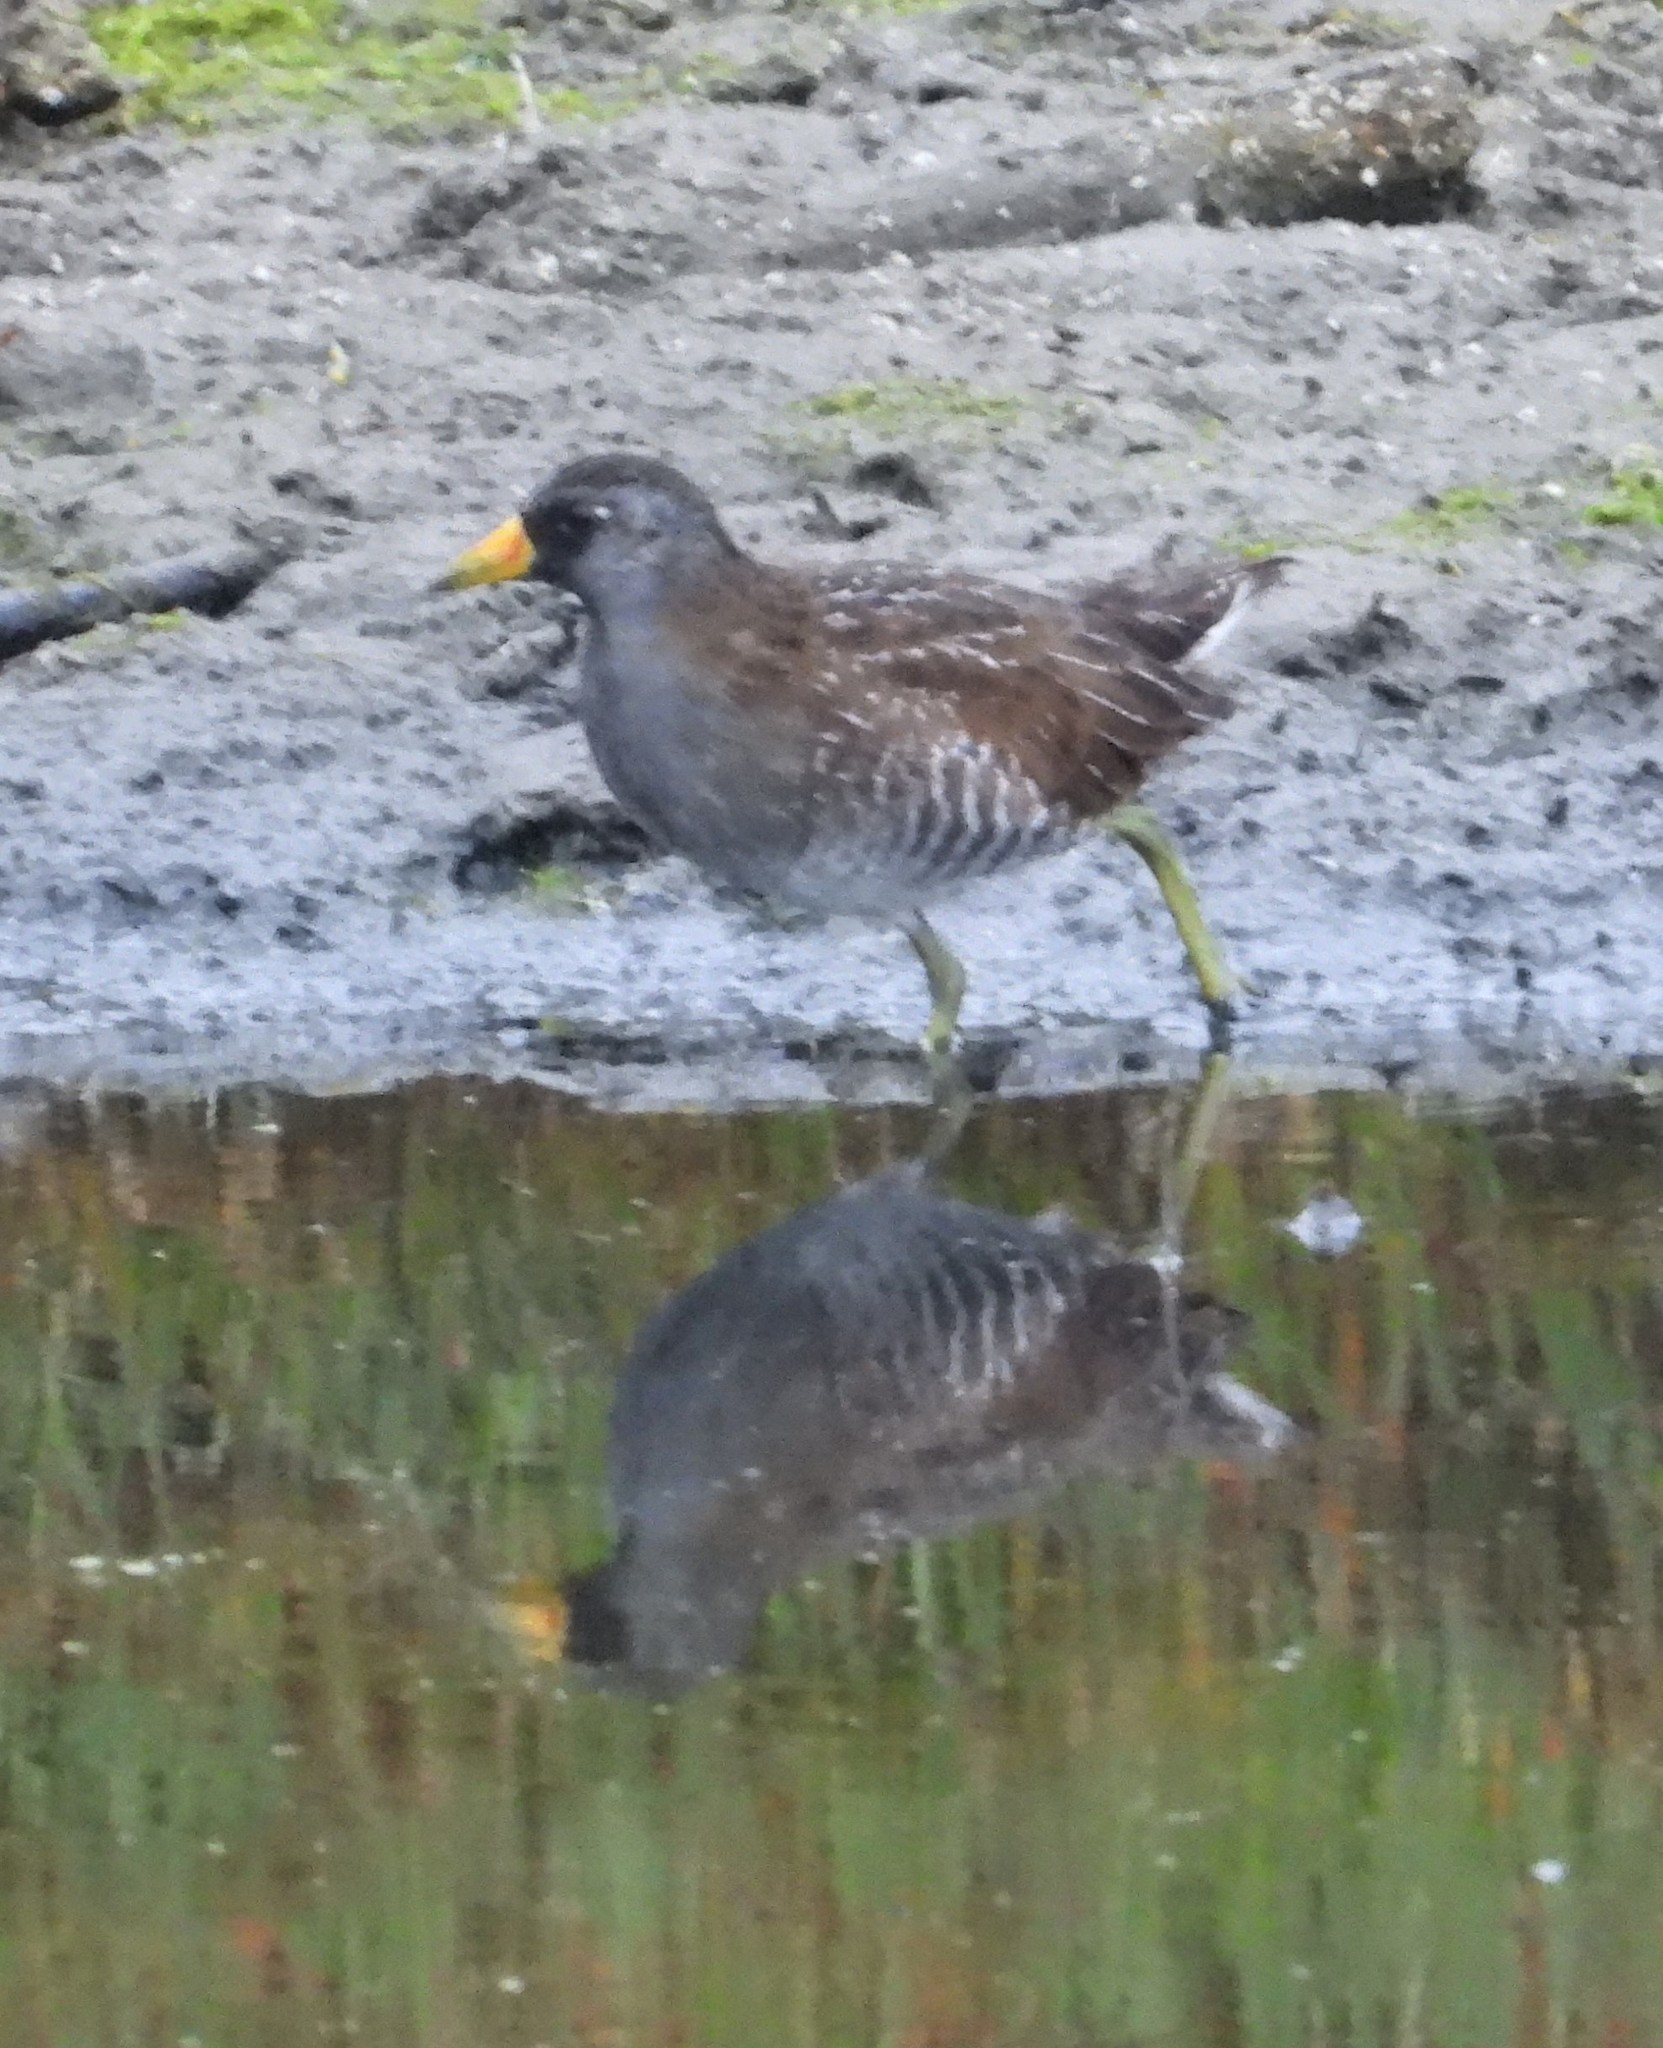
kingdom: Animalia
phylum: Chordata
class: Aves
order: Gruiformes
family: Rallidae
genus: Porzana
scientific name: Porzana carolina
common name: Sora
